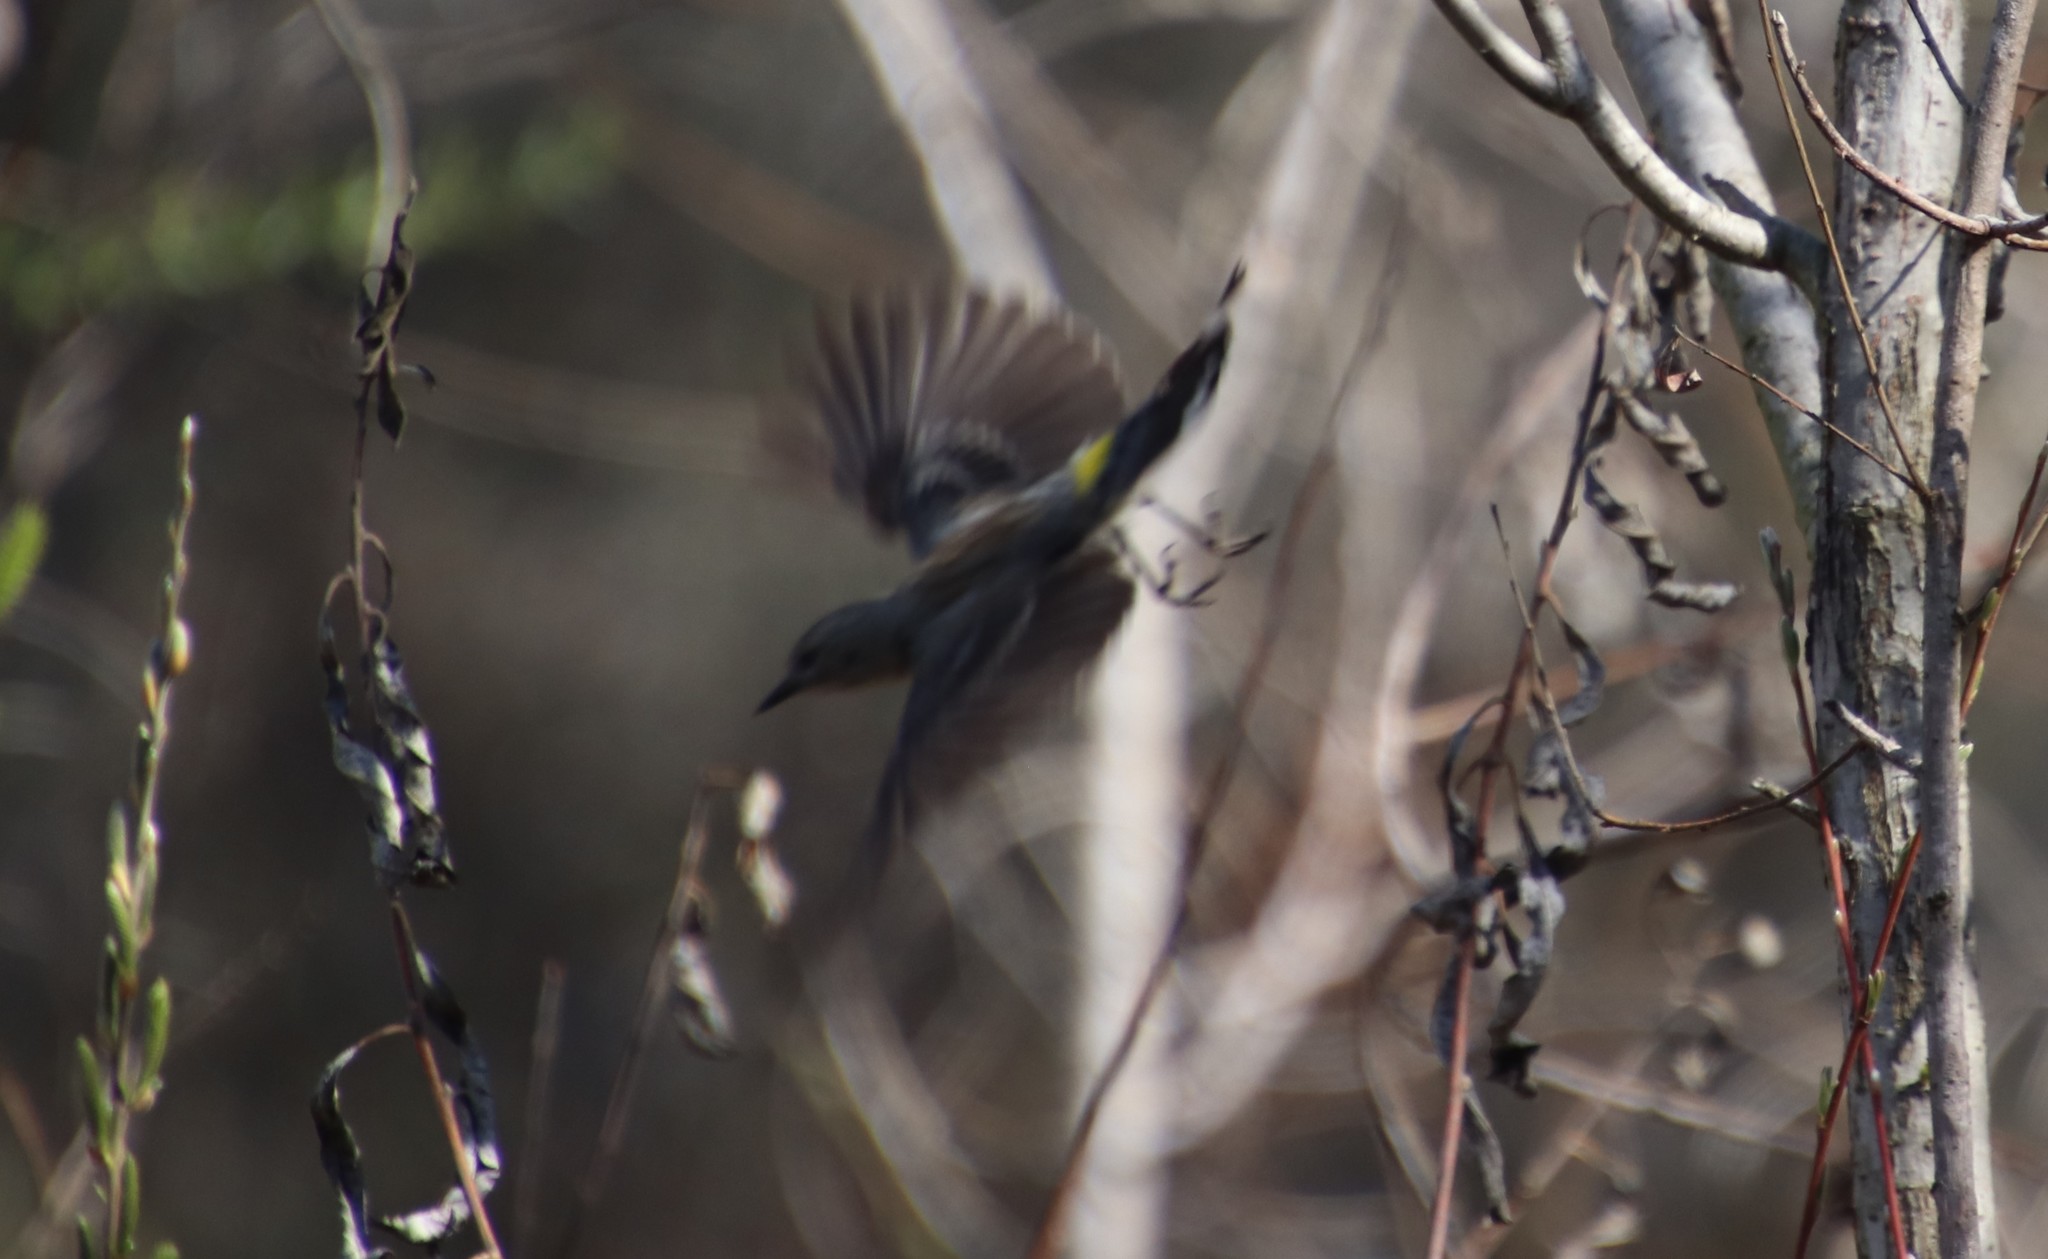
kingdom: Animalia
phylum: Chordata
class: Aves
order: Passeriformes
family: Parulidae
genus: Setophaga
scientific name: Setophaga coronata
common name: Myrtle warbler
